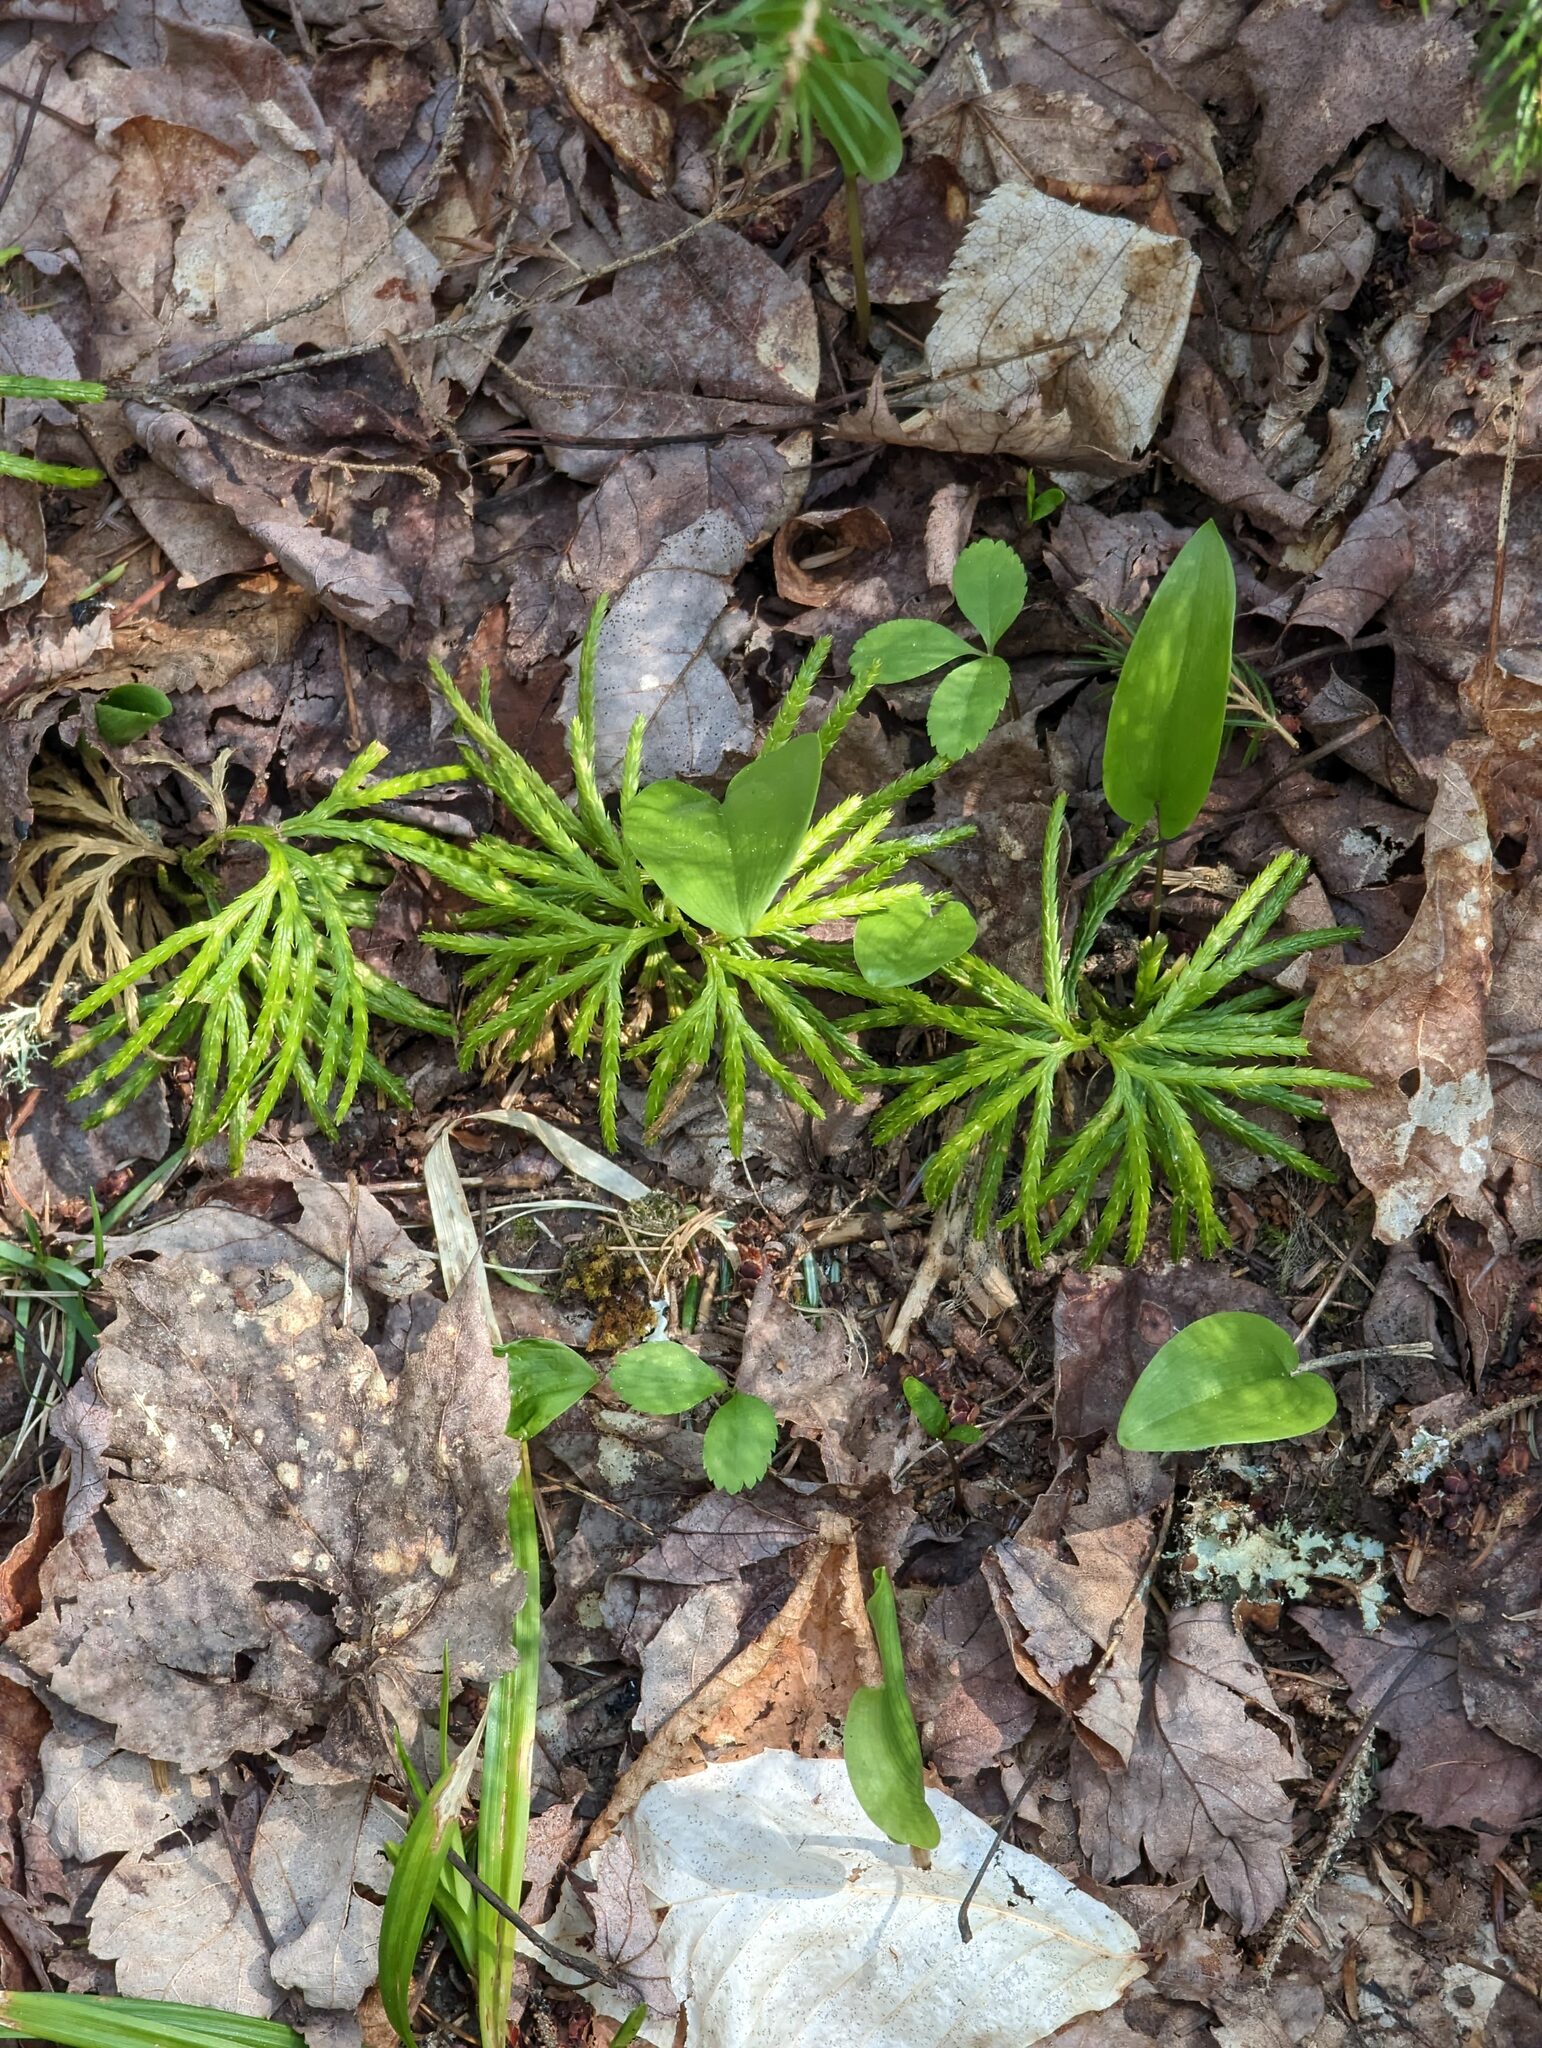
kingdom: Plantae
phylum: Tracheophyta
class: Liliopsida
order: Asparagales
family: Asparagaceae
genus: Maianthemum
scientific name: Maianthemum canadense
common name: False lily-of-the-valley
